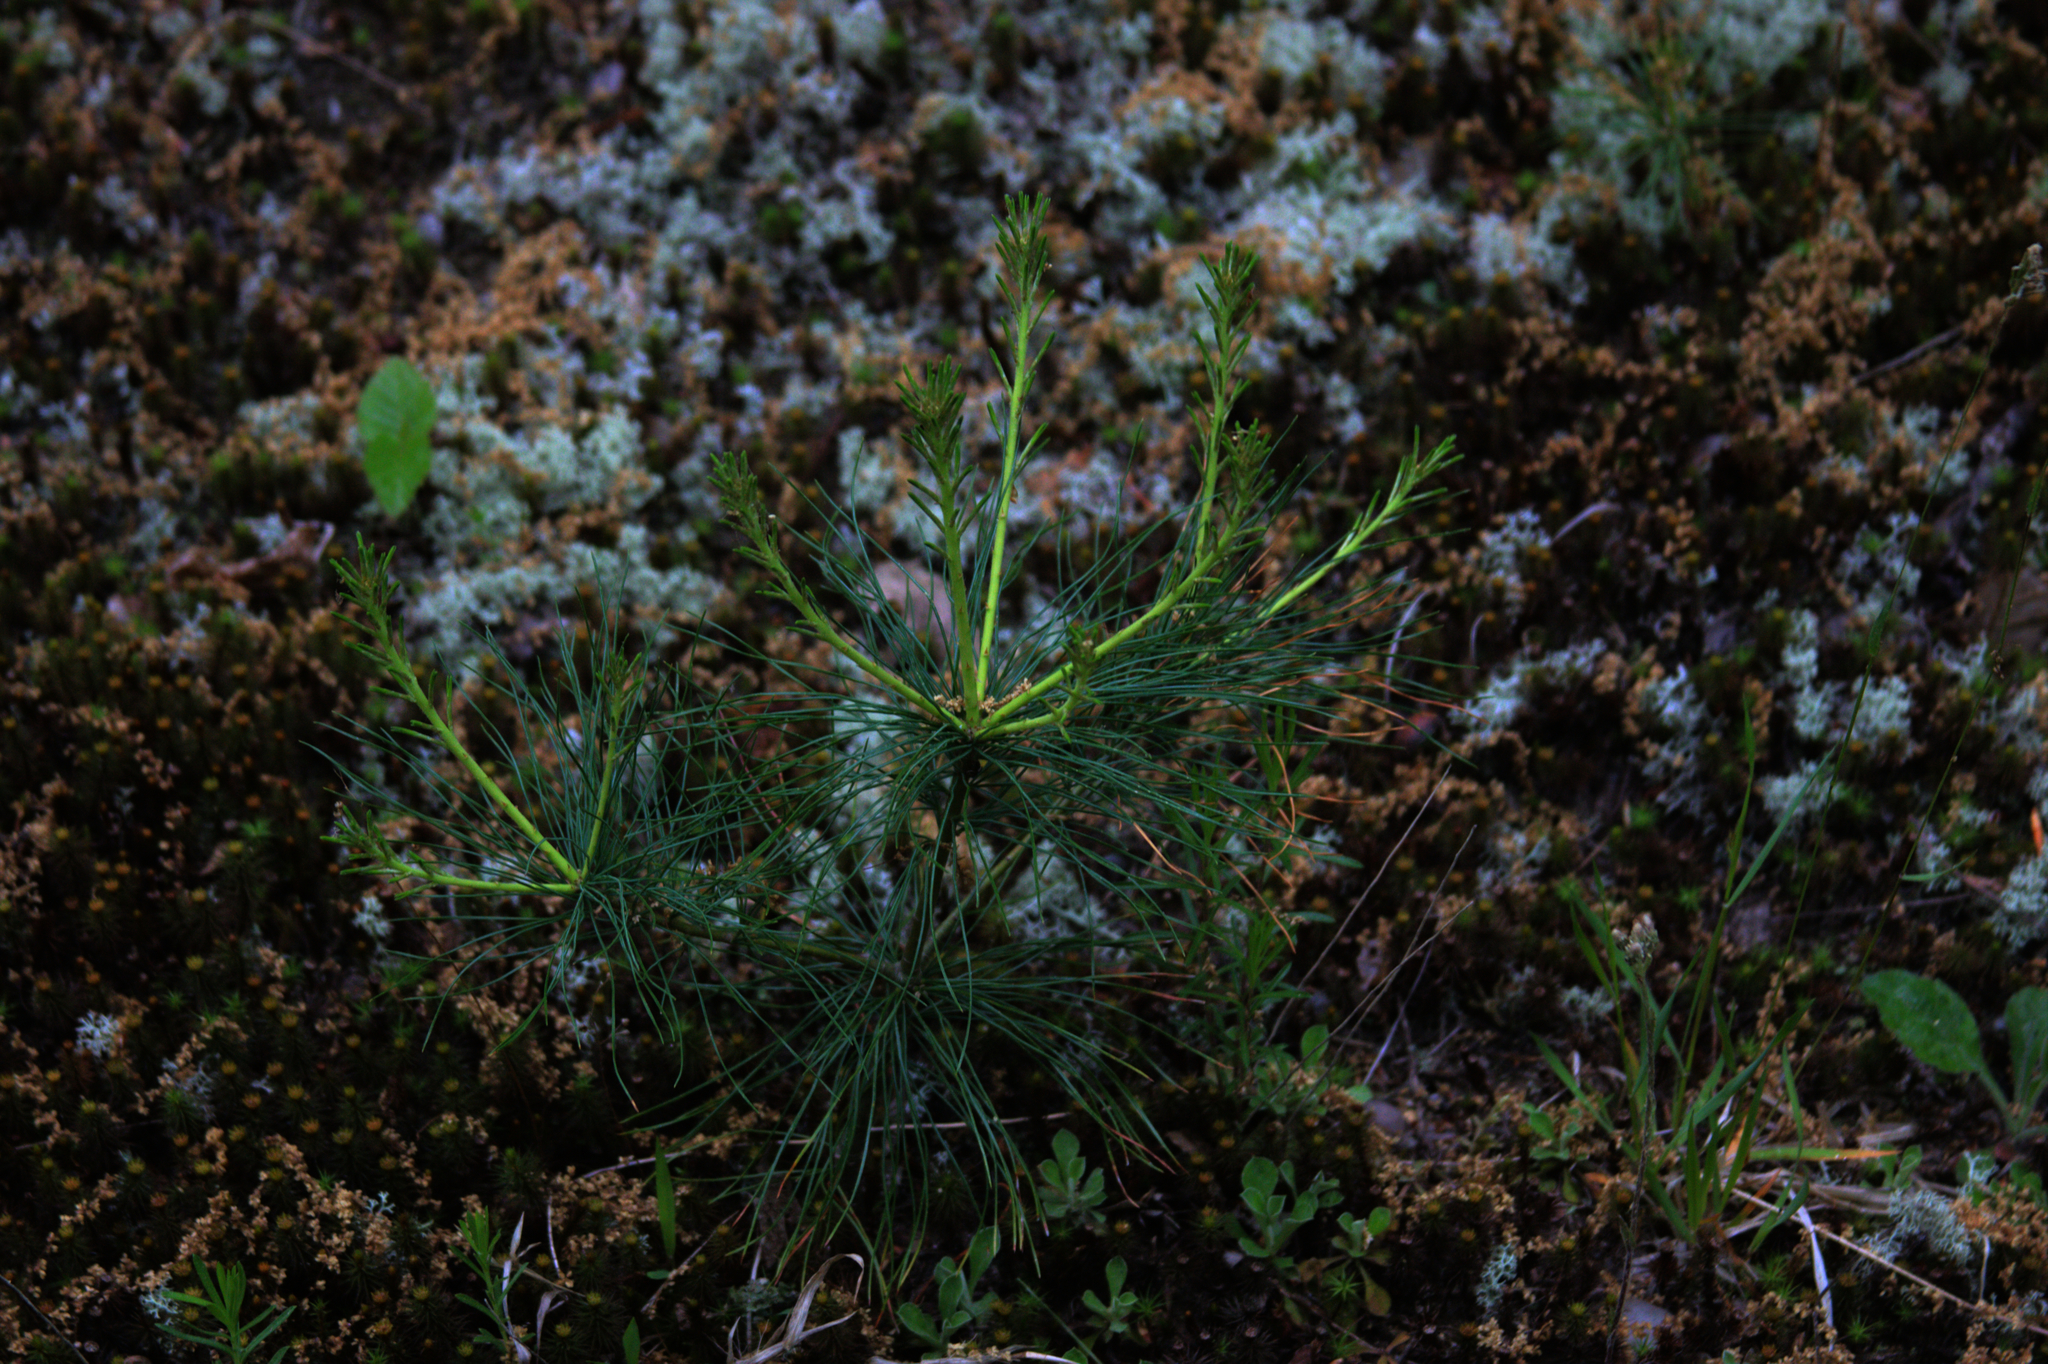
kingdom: Plantae
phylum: Tracheophyta
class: Pinopsida
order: Pinales
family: Pinaceae
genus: Pinus
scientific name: Pinus strobus
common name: Weymouth pine
